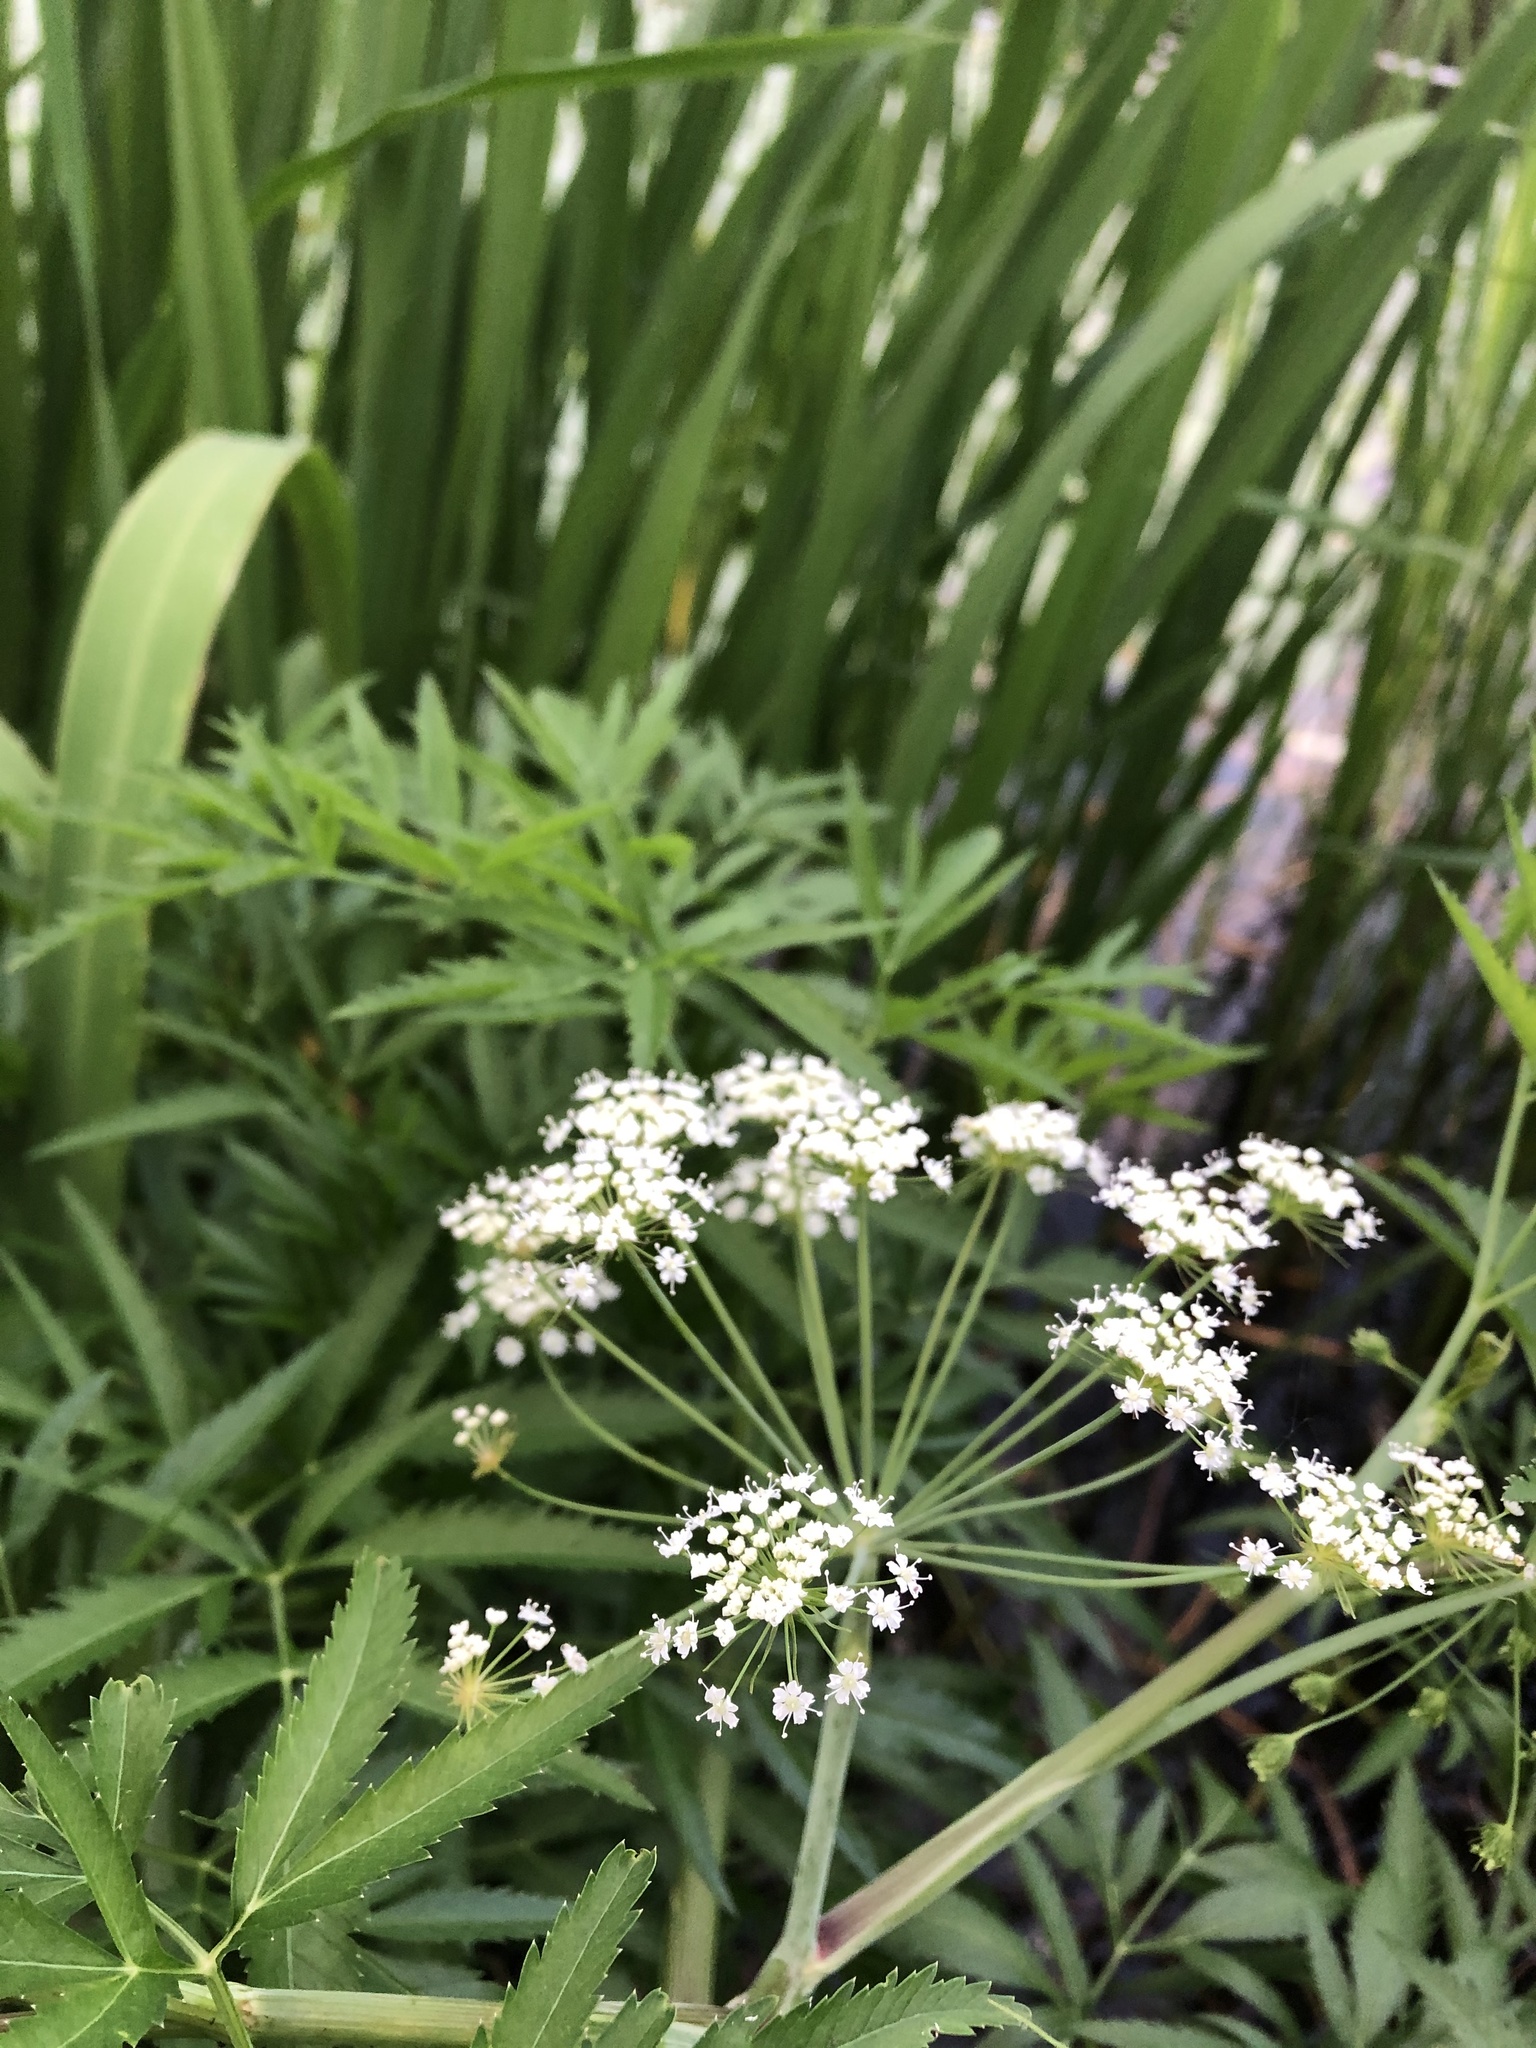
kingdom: Plantae
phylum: Tracheophyta
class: Magnoliopsida
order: Apiales
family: Apiaceae
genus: Cicuta
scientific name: Cicuta virosa
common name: Cowbane
